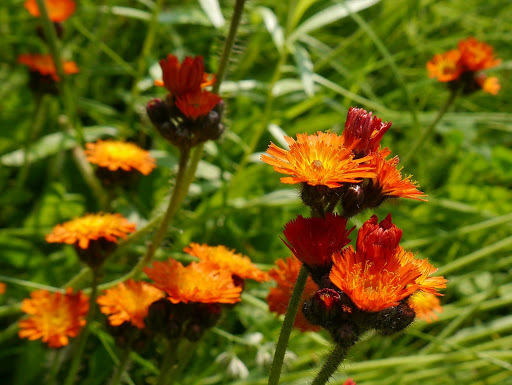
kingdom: Plantae
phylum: Tracheophyta
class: Magnoliopsida
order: Asterales
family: Asteraceae
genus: Pilosella
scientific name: Pilosella aurantiaca
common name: Fox-and-cubs
